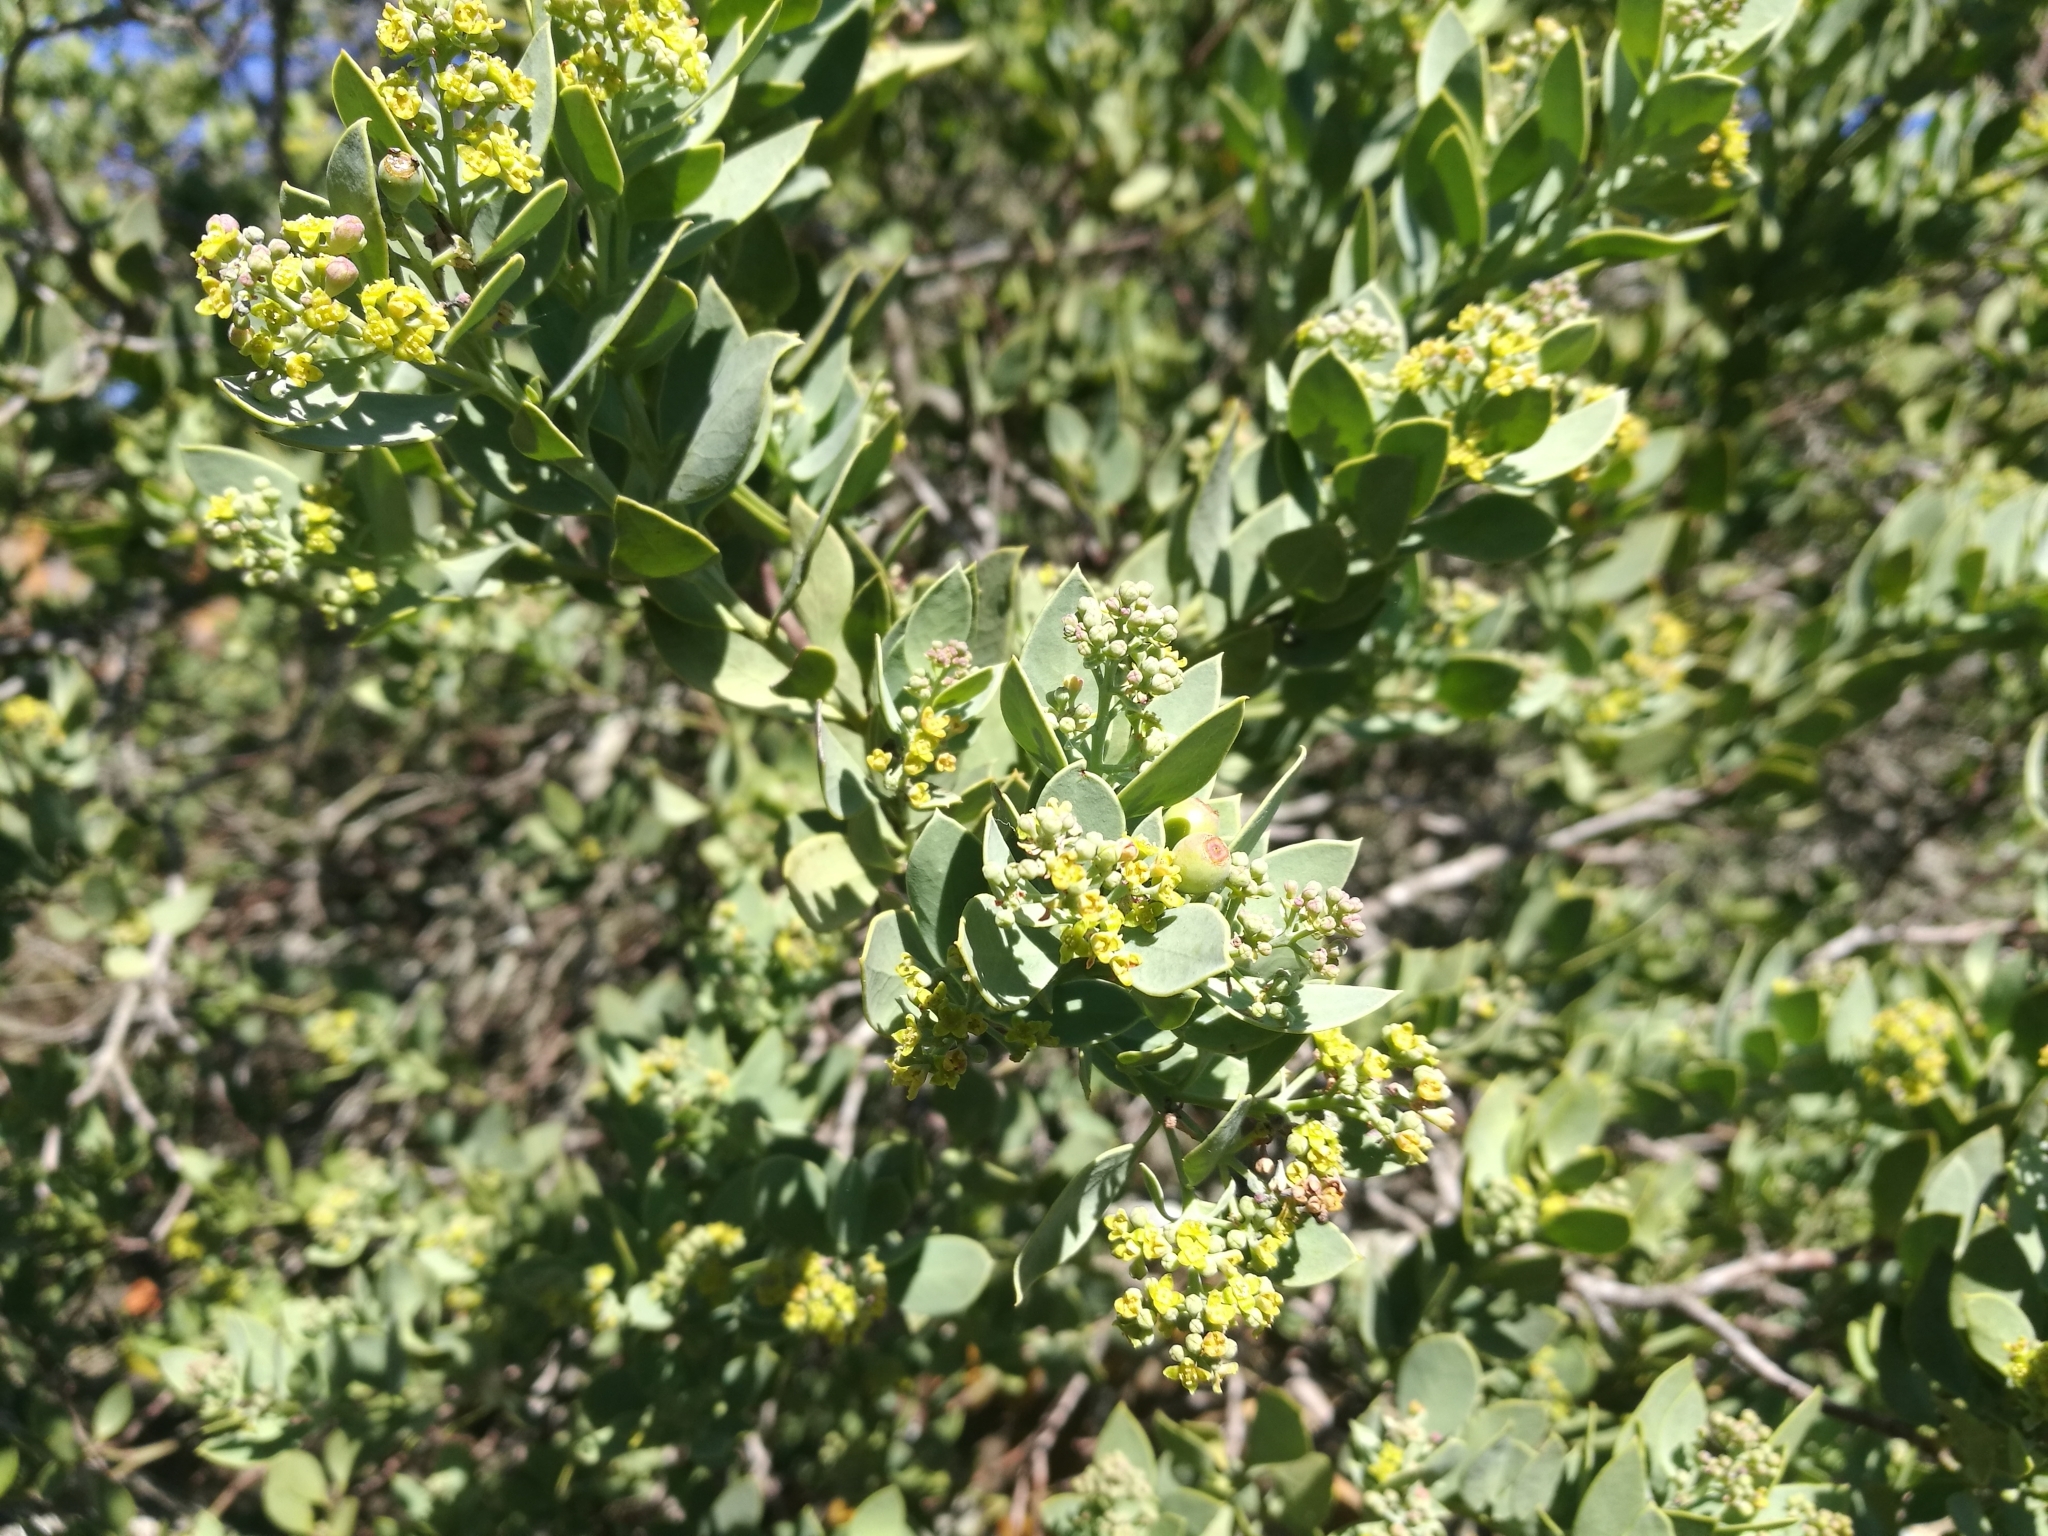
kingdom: Plantae
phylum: Tracheophyta
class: Magnoliopsida
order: Santalales
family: Santalaceae
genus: Osyris
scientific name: Osyris compressa
